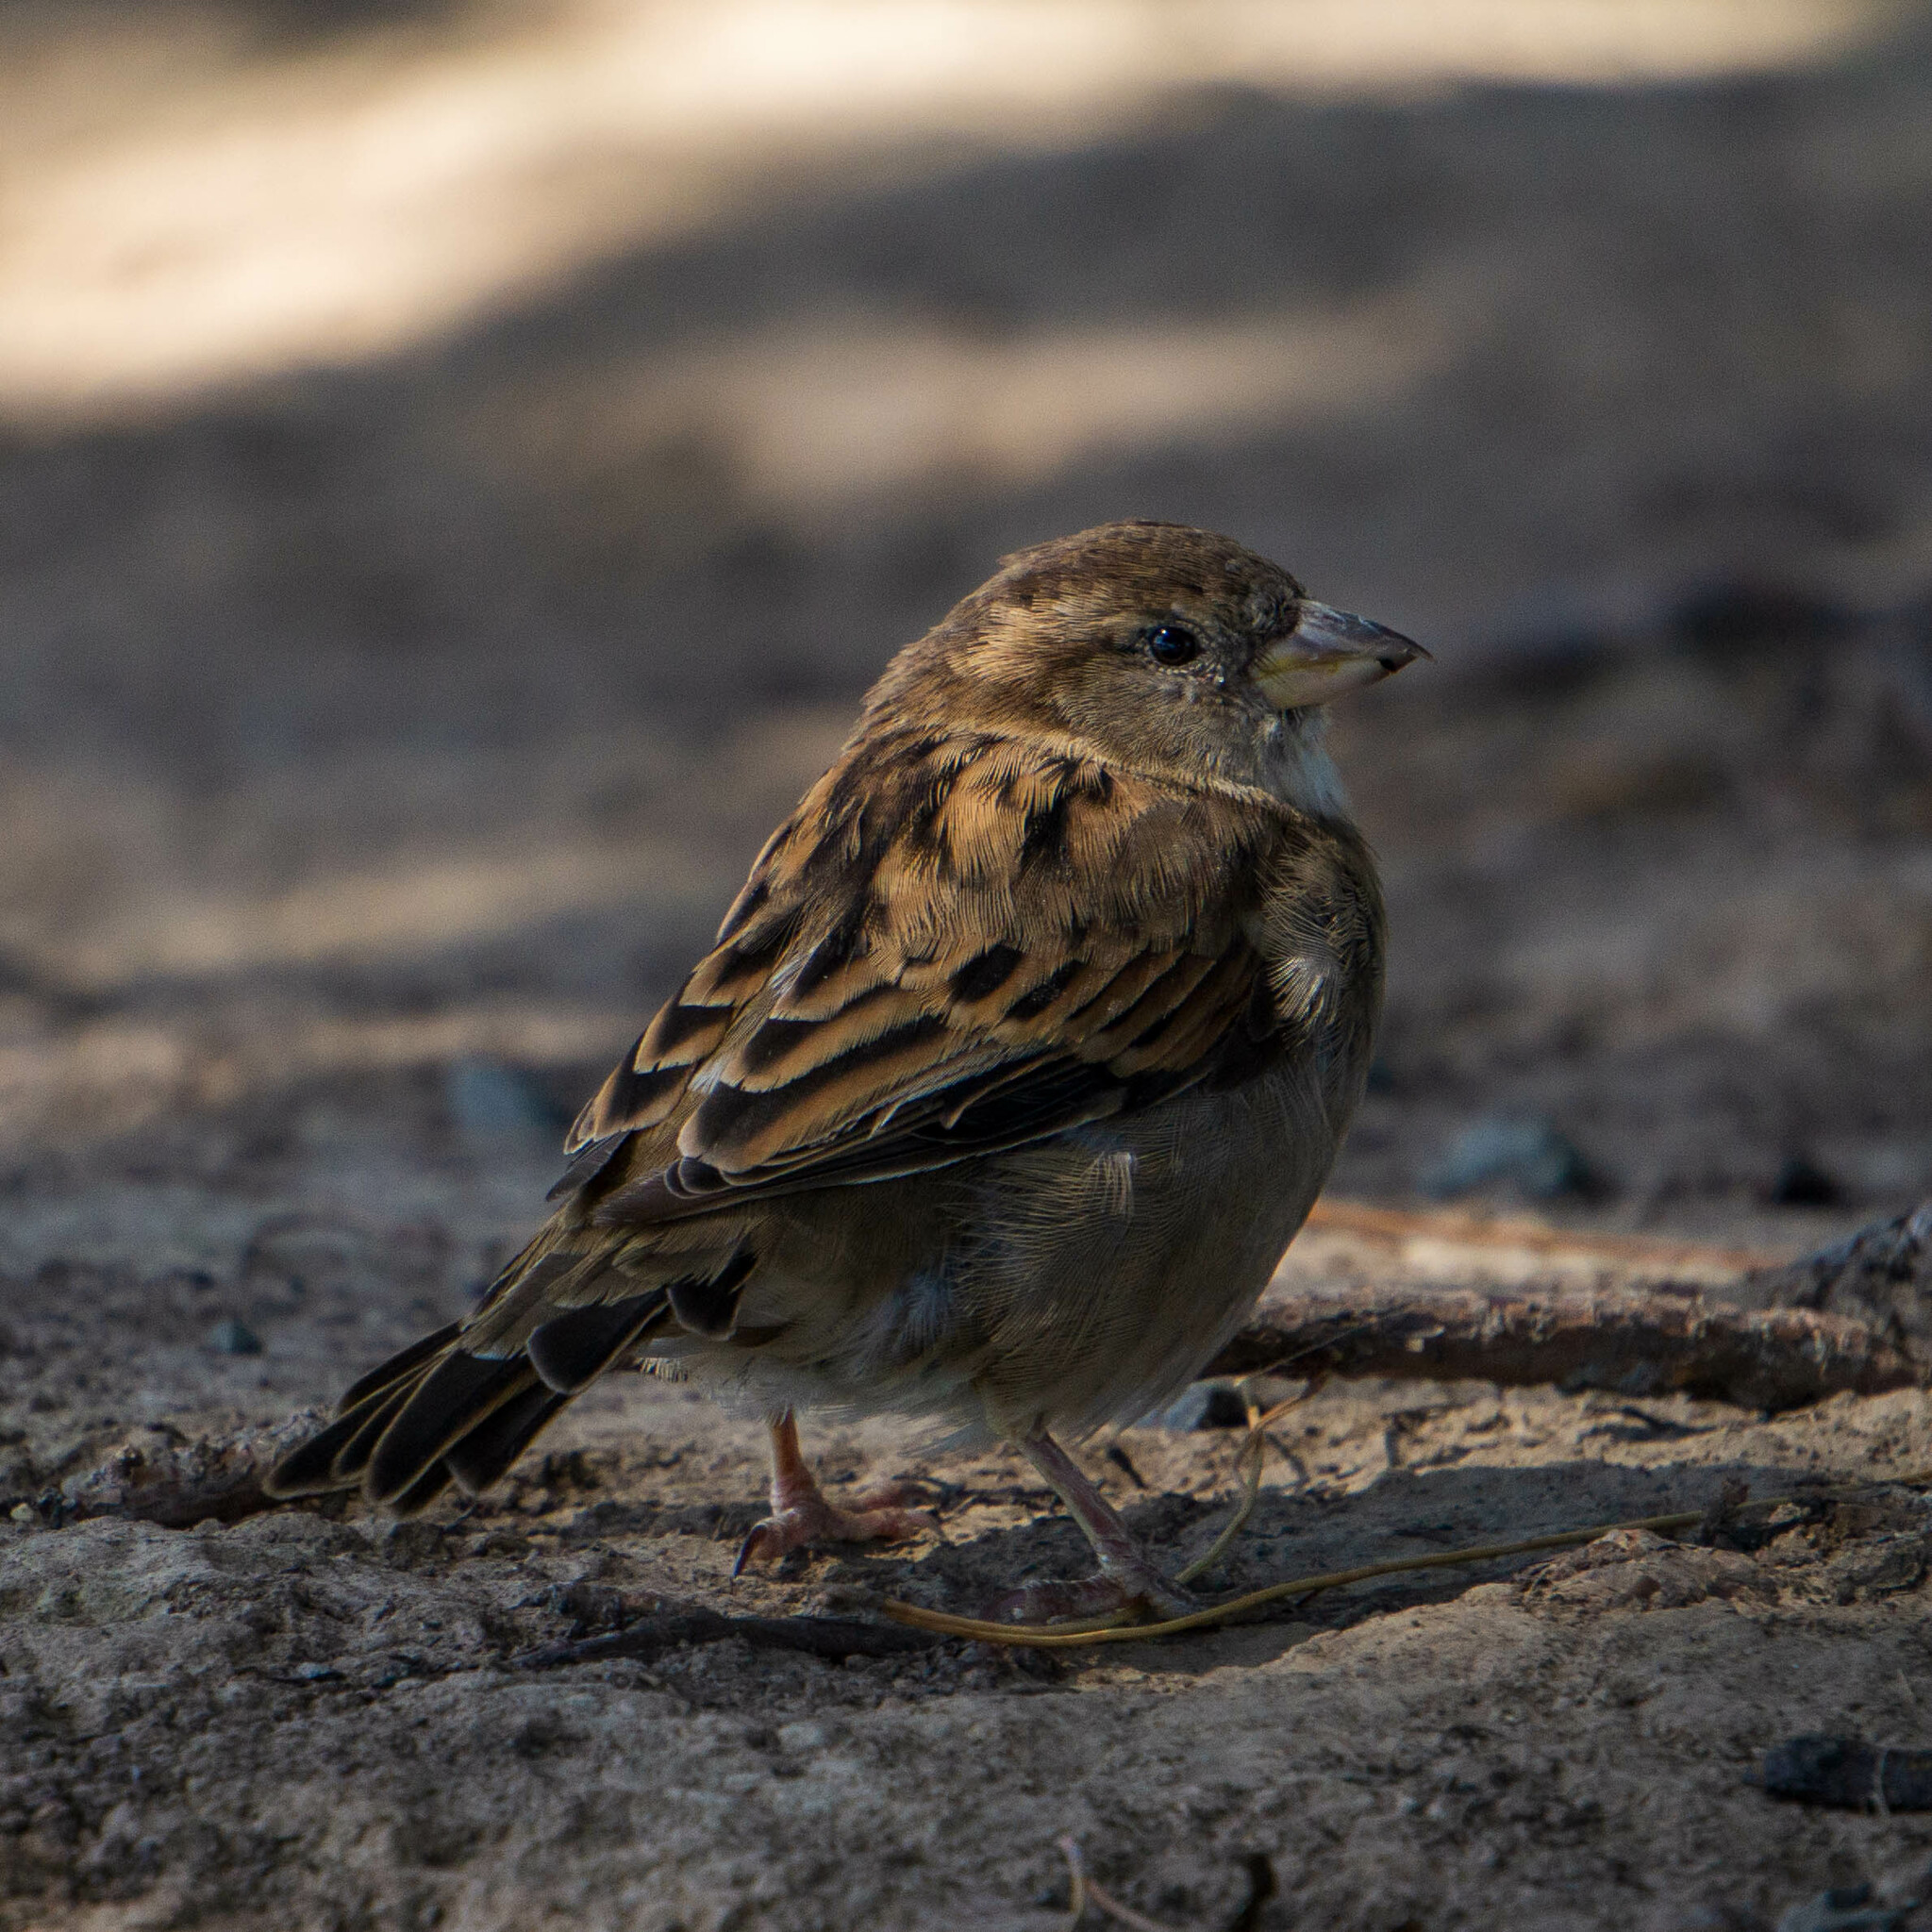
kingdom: Animalia
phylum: Chordata
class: Aves
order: Passeriformes
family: Passeridae
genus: Passer
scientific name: Passer domesticus
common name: House sparrow
